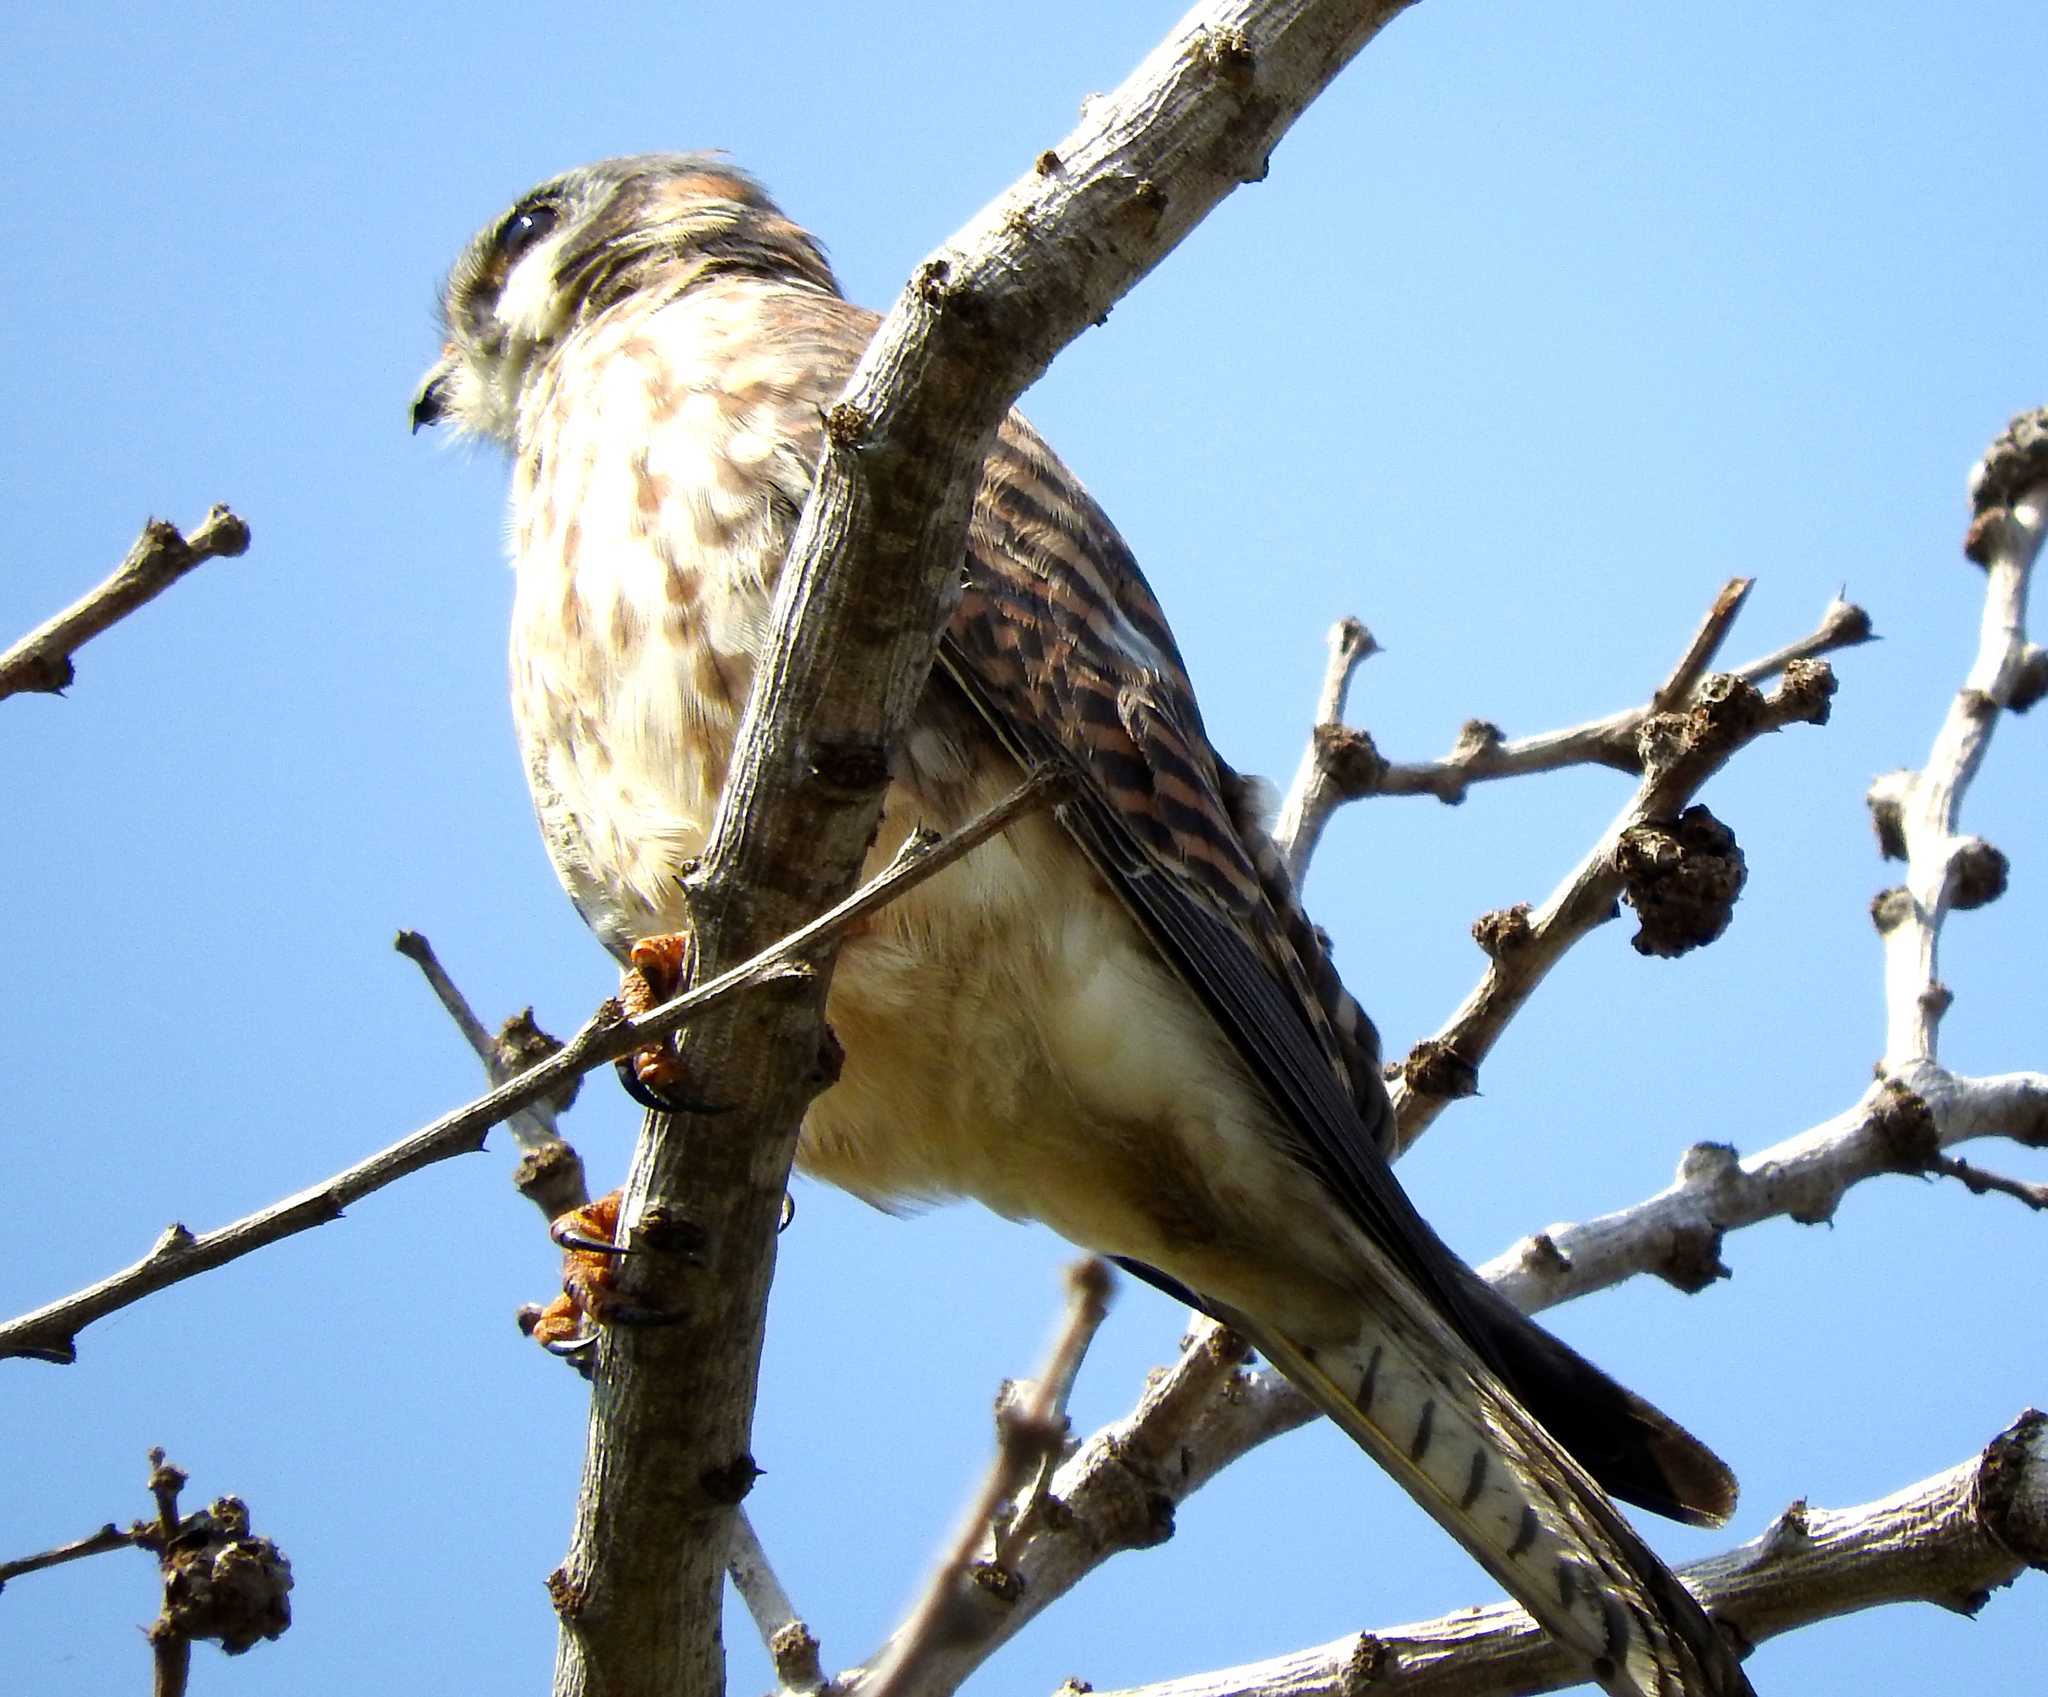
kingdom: Animalia
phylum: Chordata
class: Aves
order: Falconiformes
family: Falconidae
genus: Falco
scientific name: Falco sparverius
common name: American kestrel
